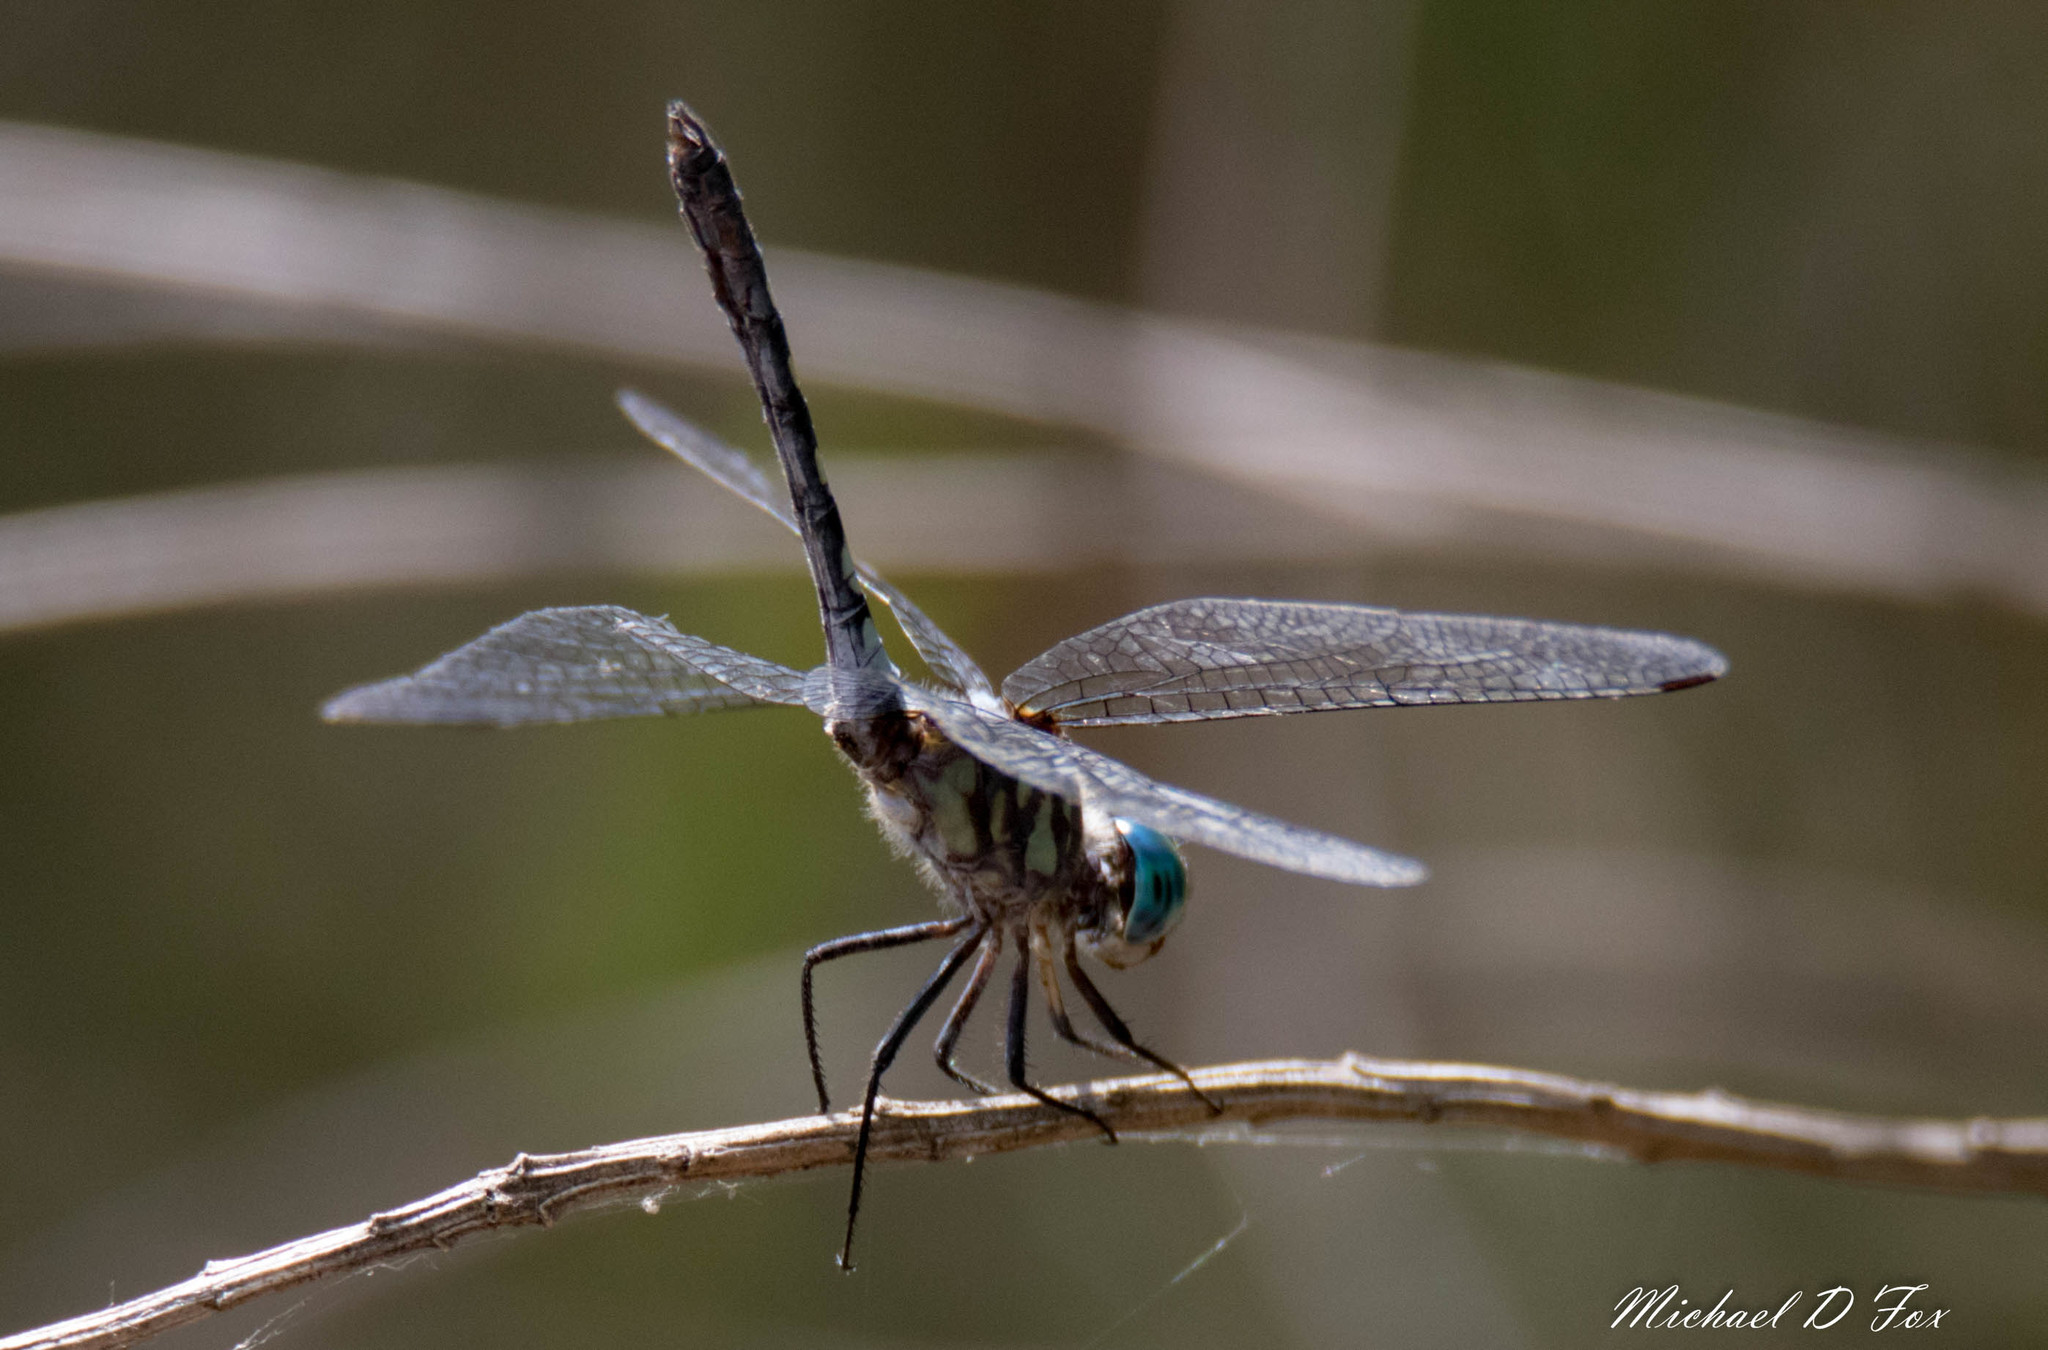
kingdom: Animalia
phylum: Arthropoda
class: Insecta
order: Odonata
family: Libellulidae
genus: Micrathyria
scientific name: Micrathyria hagenii
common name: Thornbush dasher
